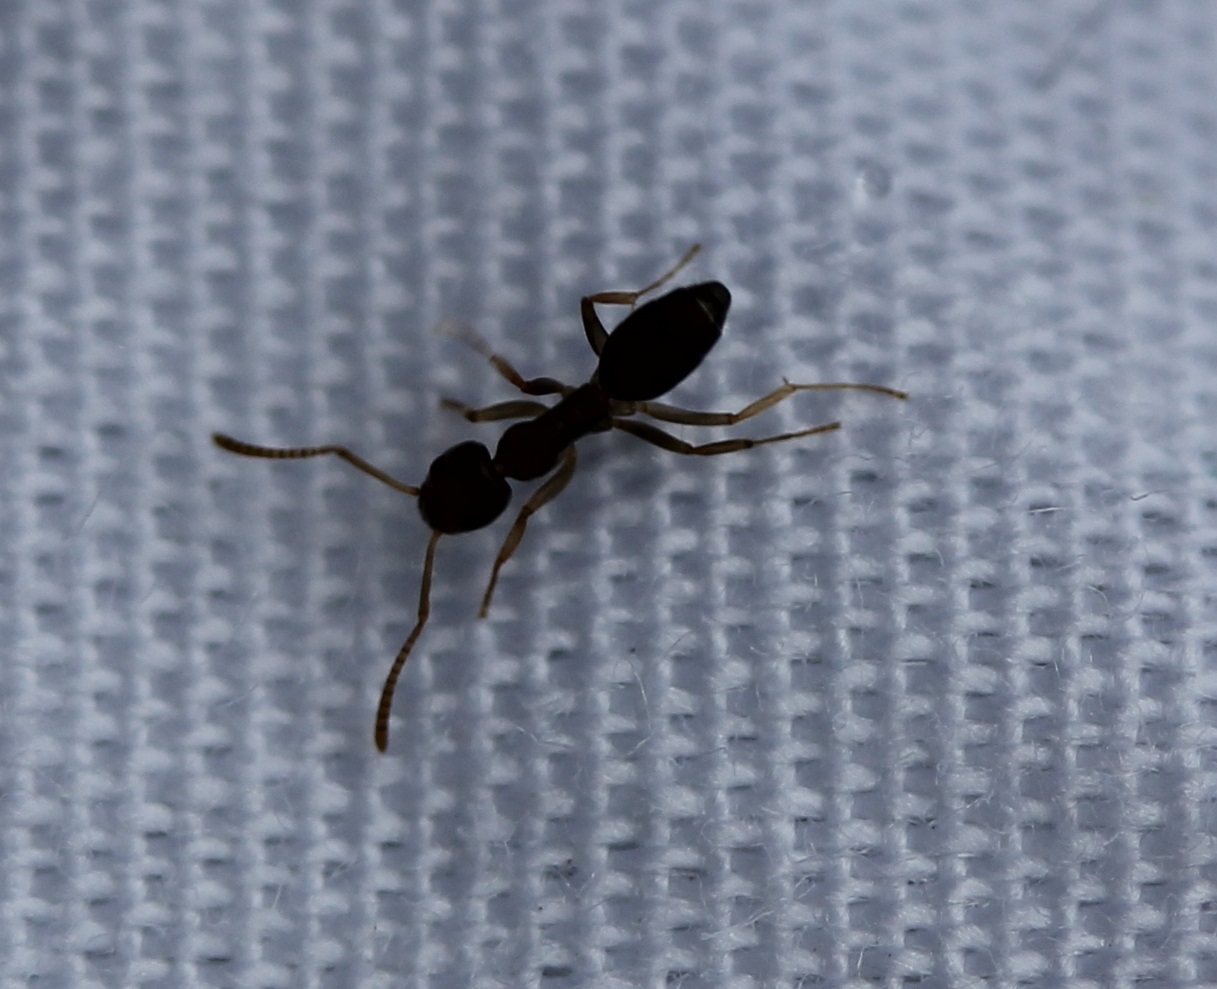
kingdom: Animalia
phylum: Arthropoda
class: Insecta
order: Hymenoptera
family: Formicidae
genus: Tapinoma
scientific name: Tapinoma sessile
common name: Odorous house ant
